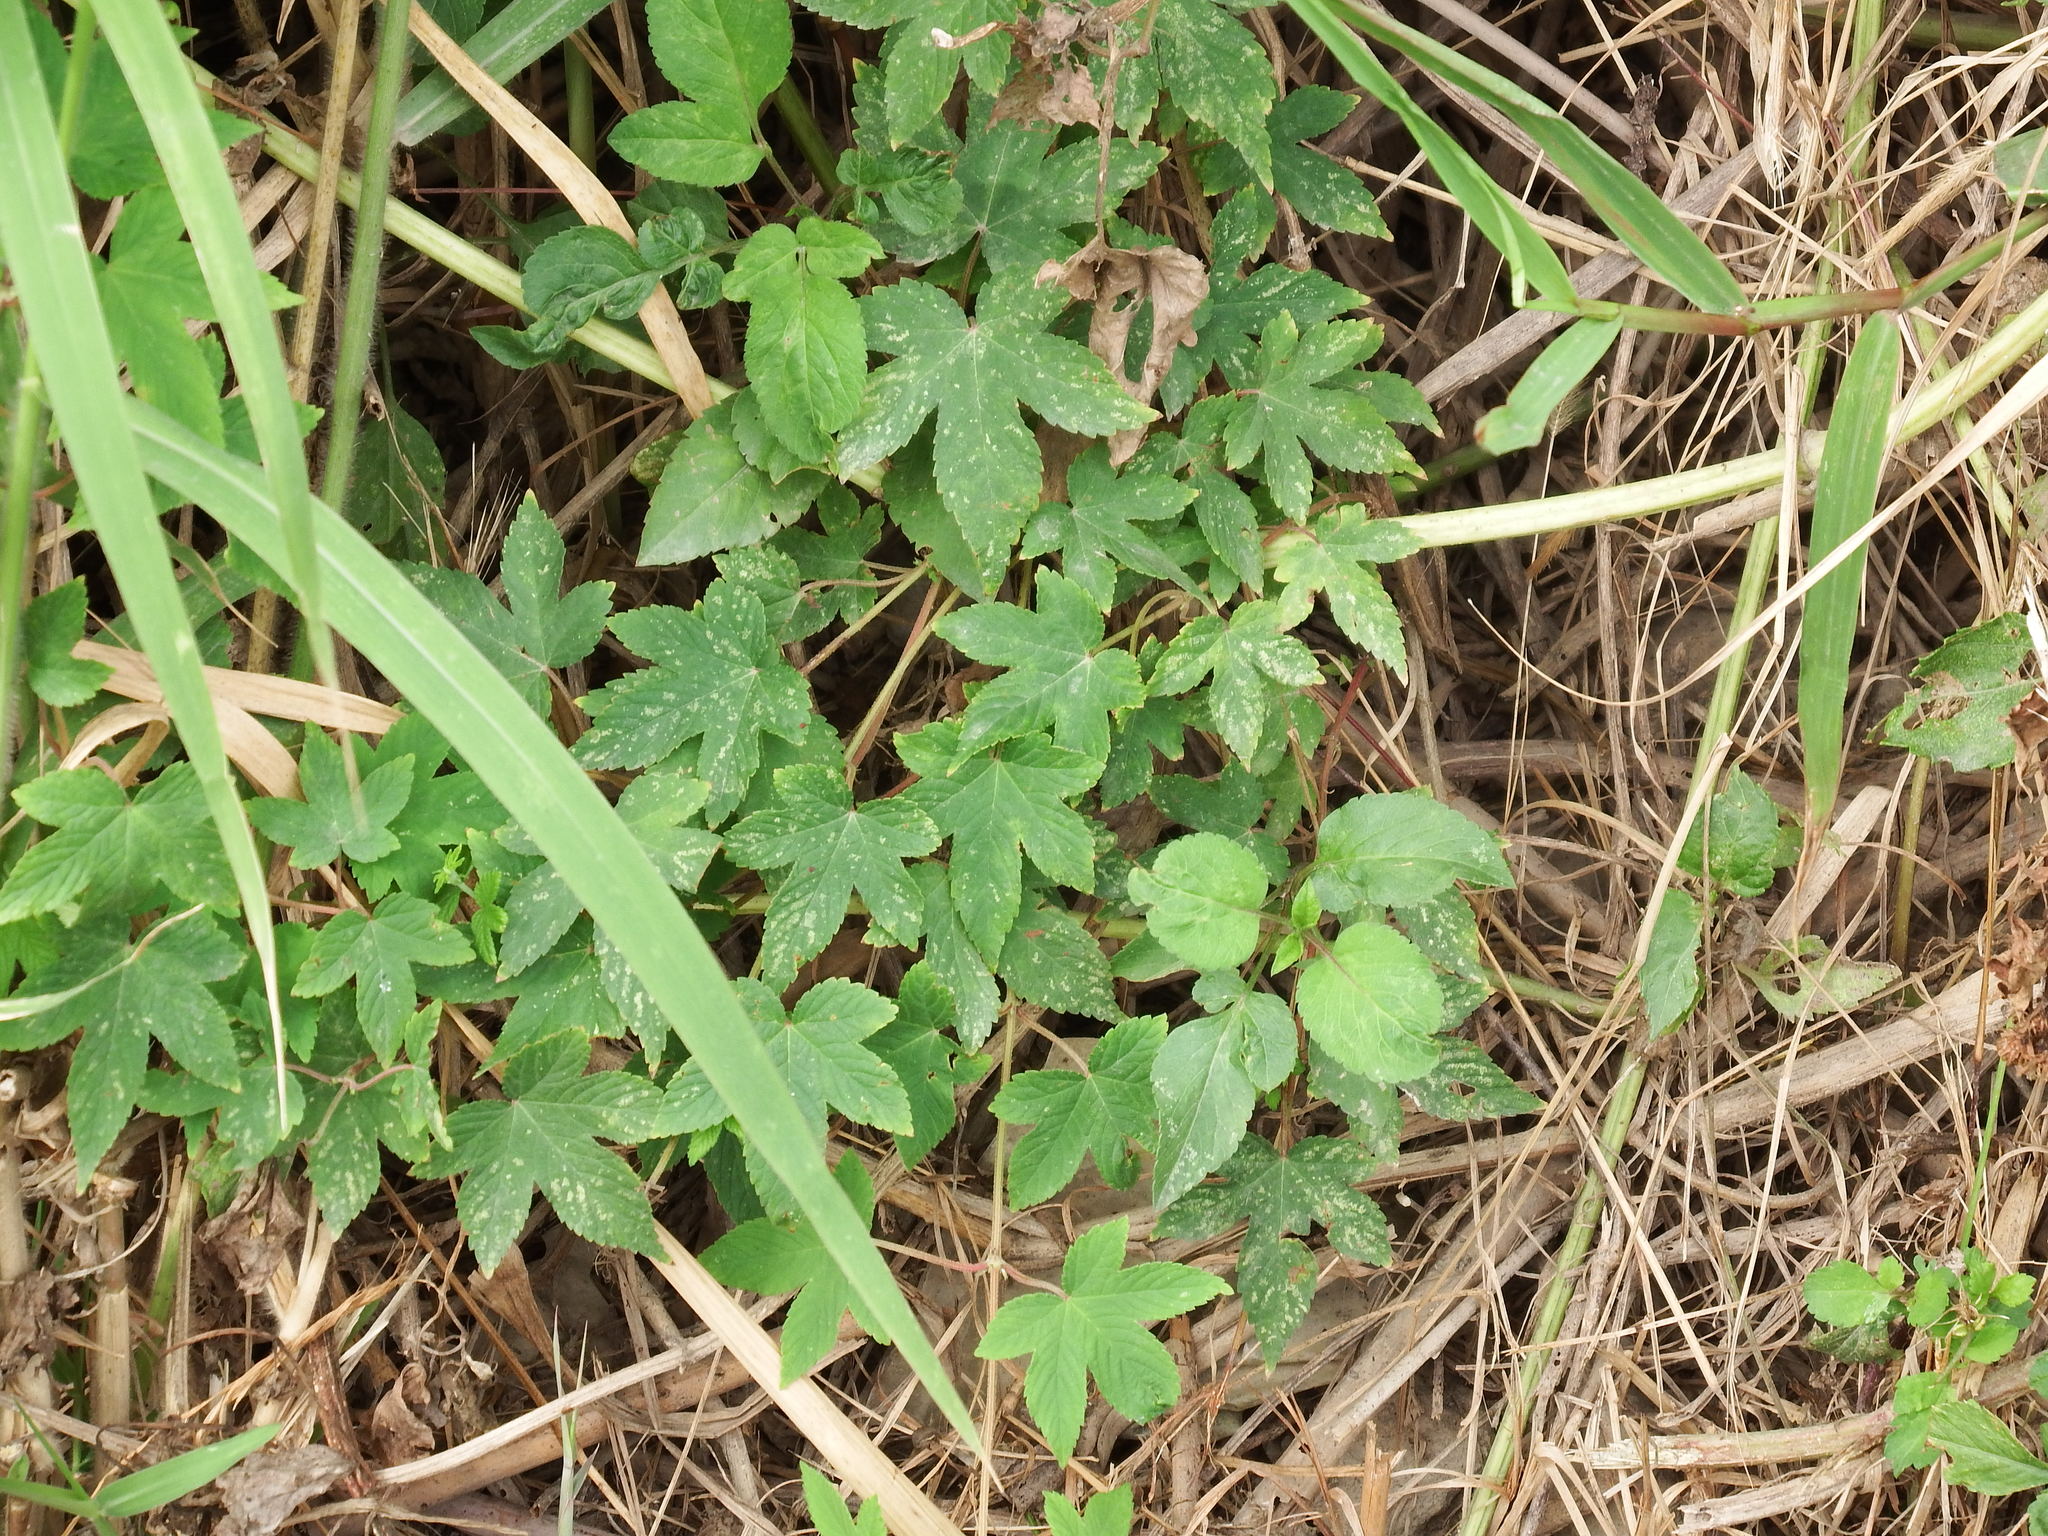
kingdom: Plantae
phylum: Tracheophyta
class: Magnoliopsida
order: Rosales
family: Cannabaceae
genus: Humulus
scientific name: Humulus scandens
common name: Japanese hop
